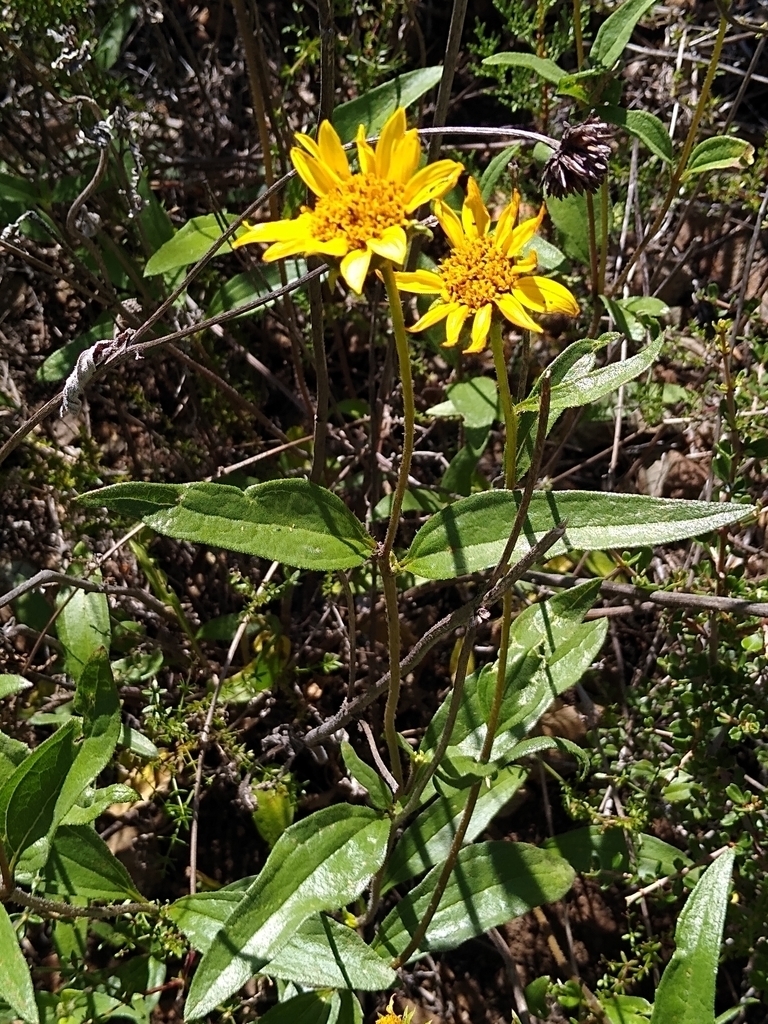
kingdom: Plantae
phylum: Tracheophyta
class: Magnoliopsida
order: Asterales
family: Asteraceae
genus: Helianthus
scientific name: Helianthus gracilentus
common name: Slender sunflower
